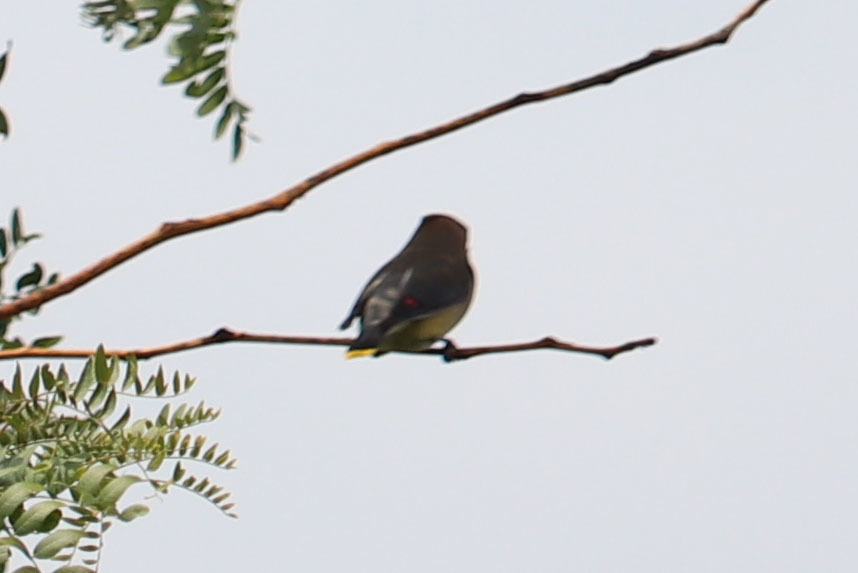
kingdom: Animalia
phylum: Chordata
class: Aves
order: Passeriformes
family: Bombycillidae
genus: Bombycilla
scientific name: Bombycilla cedrorum
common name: Cedar waxwing
